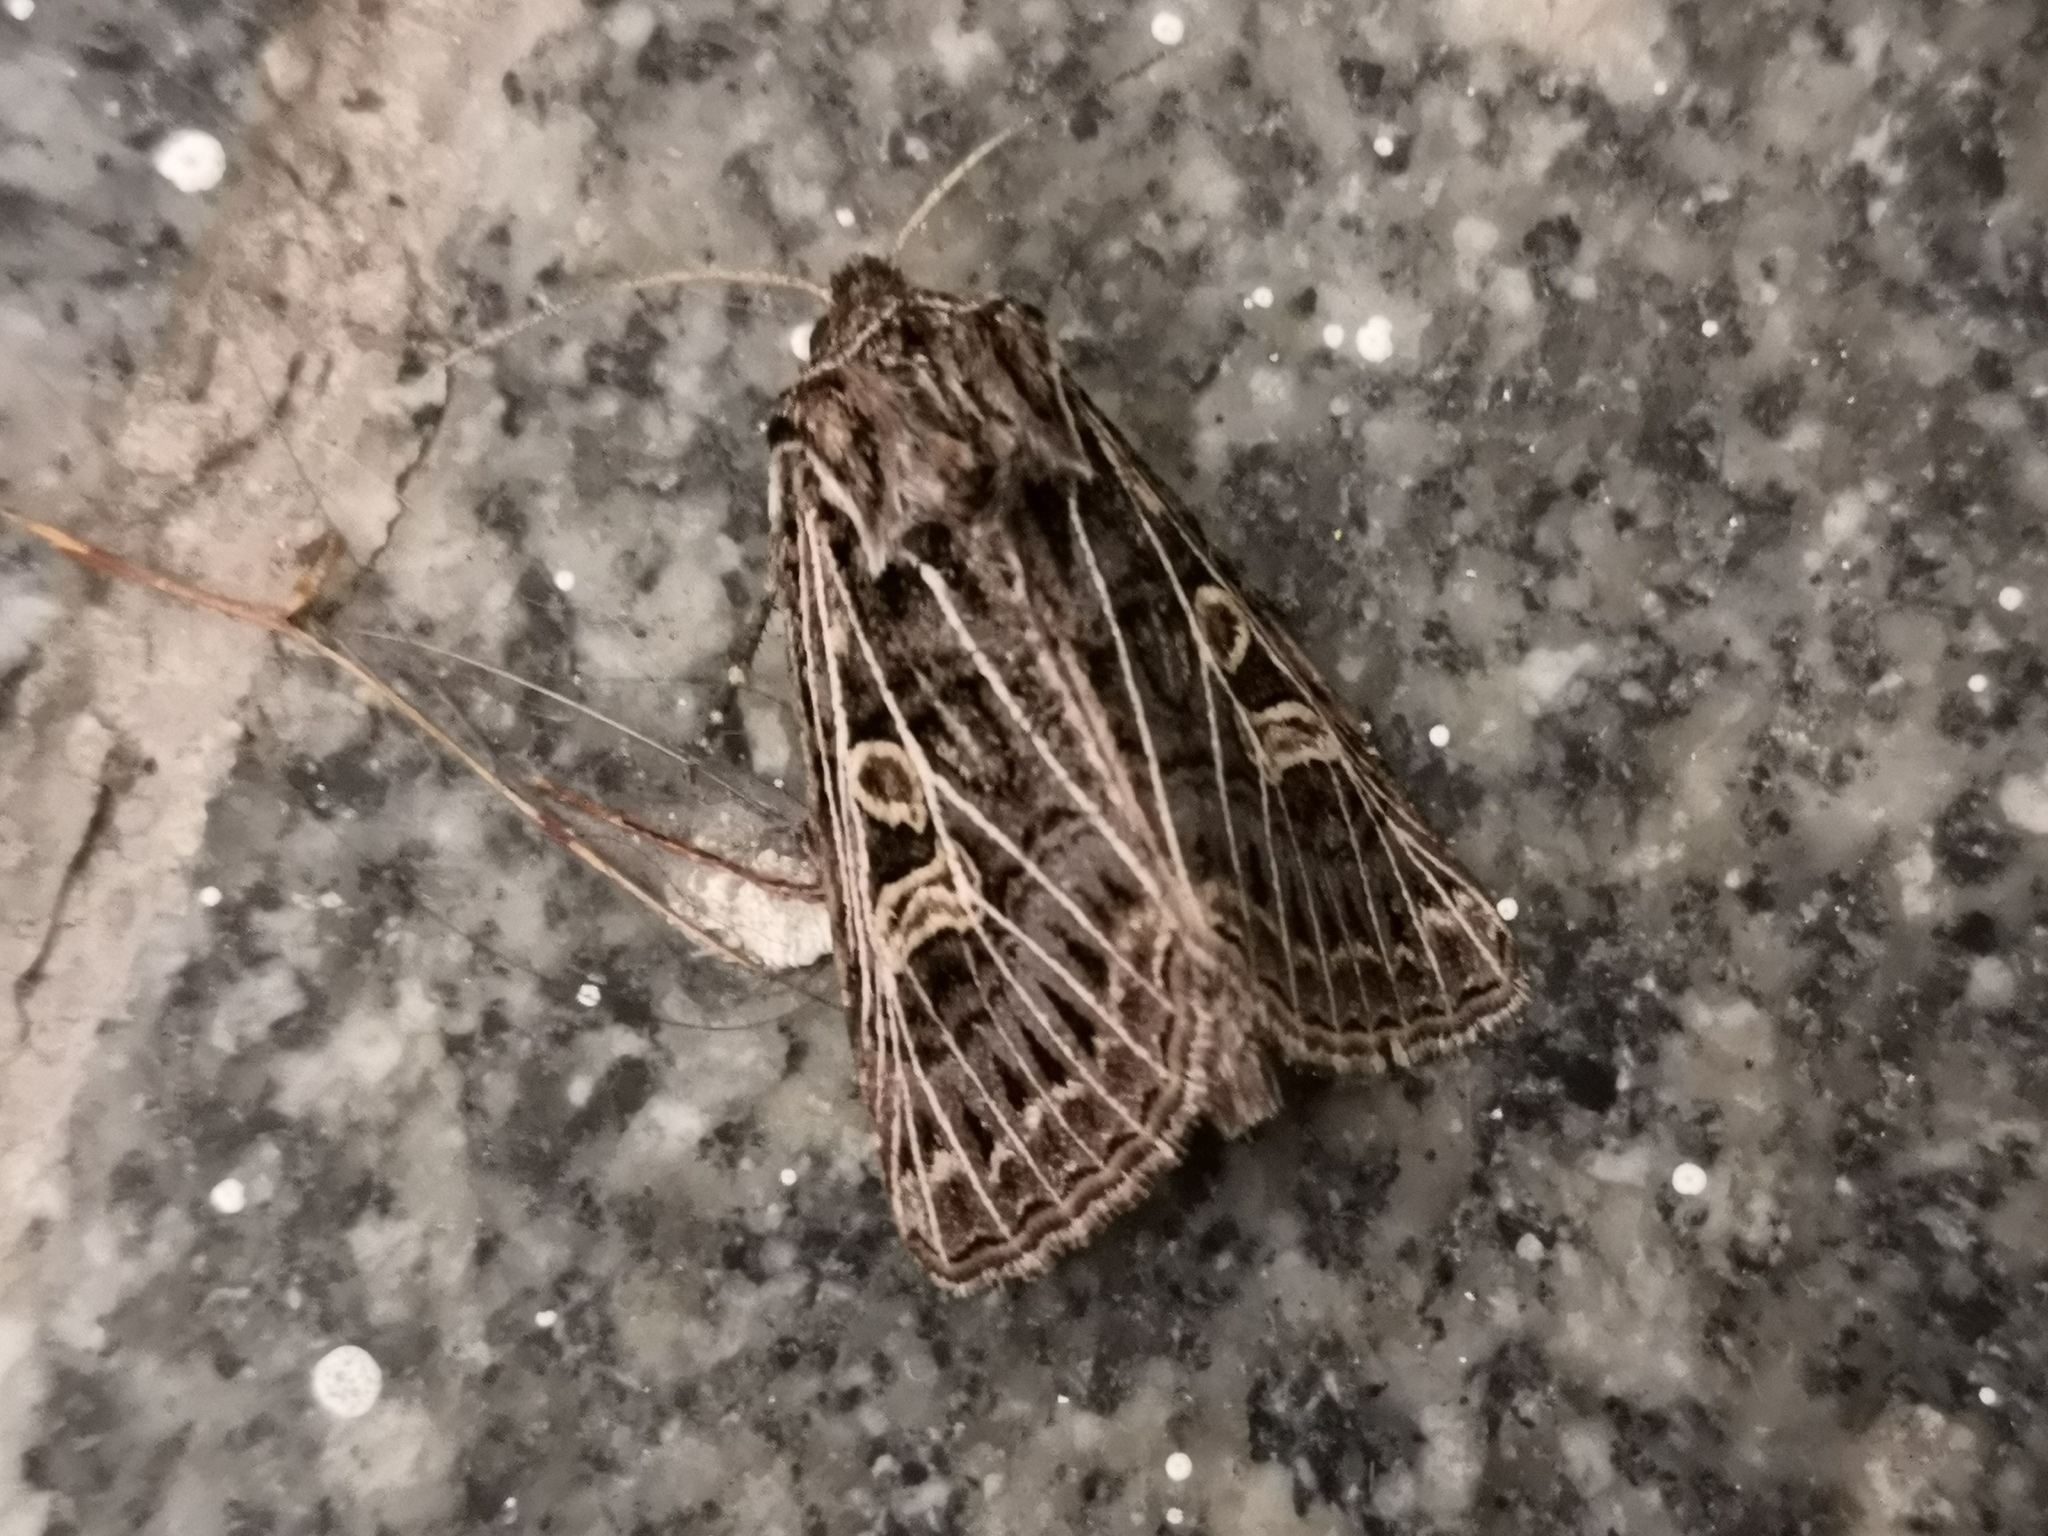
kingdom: Animalia
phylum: Arthropoda
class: Insecta
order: Lepidoptera
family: Noctuidae
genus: Tholera
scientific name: Tholera decimalis
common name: Feathered gothic
